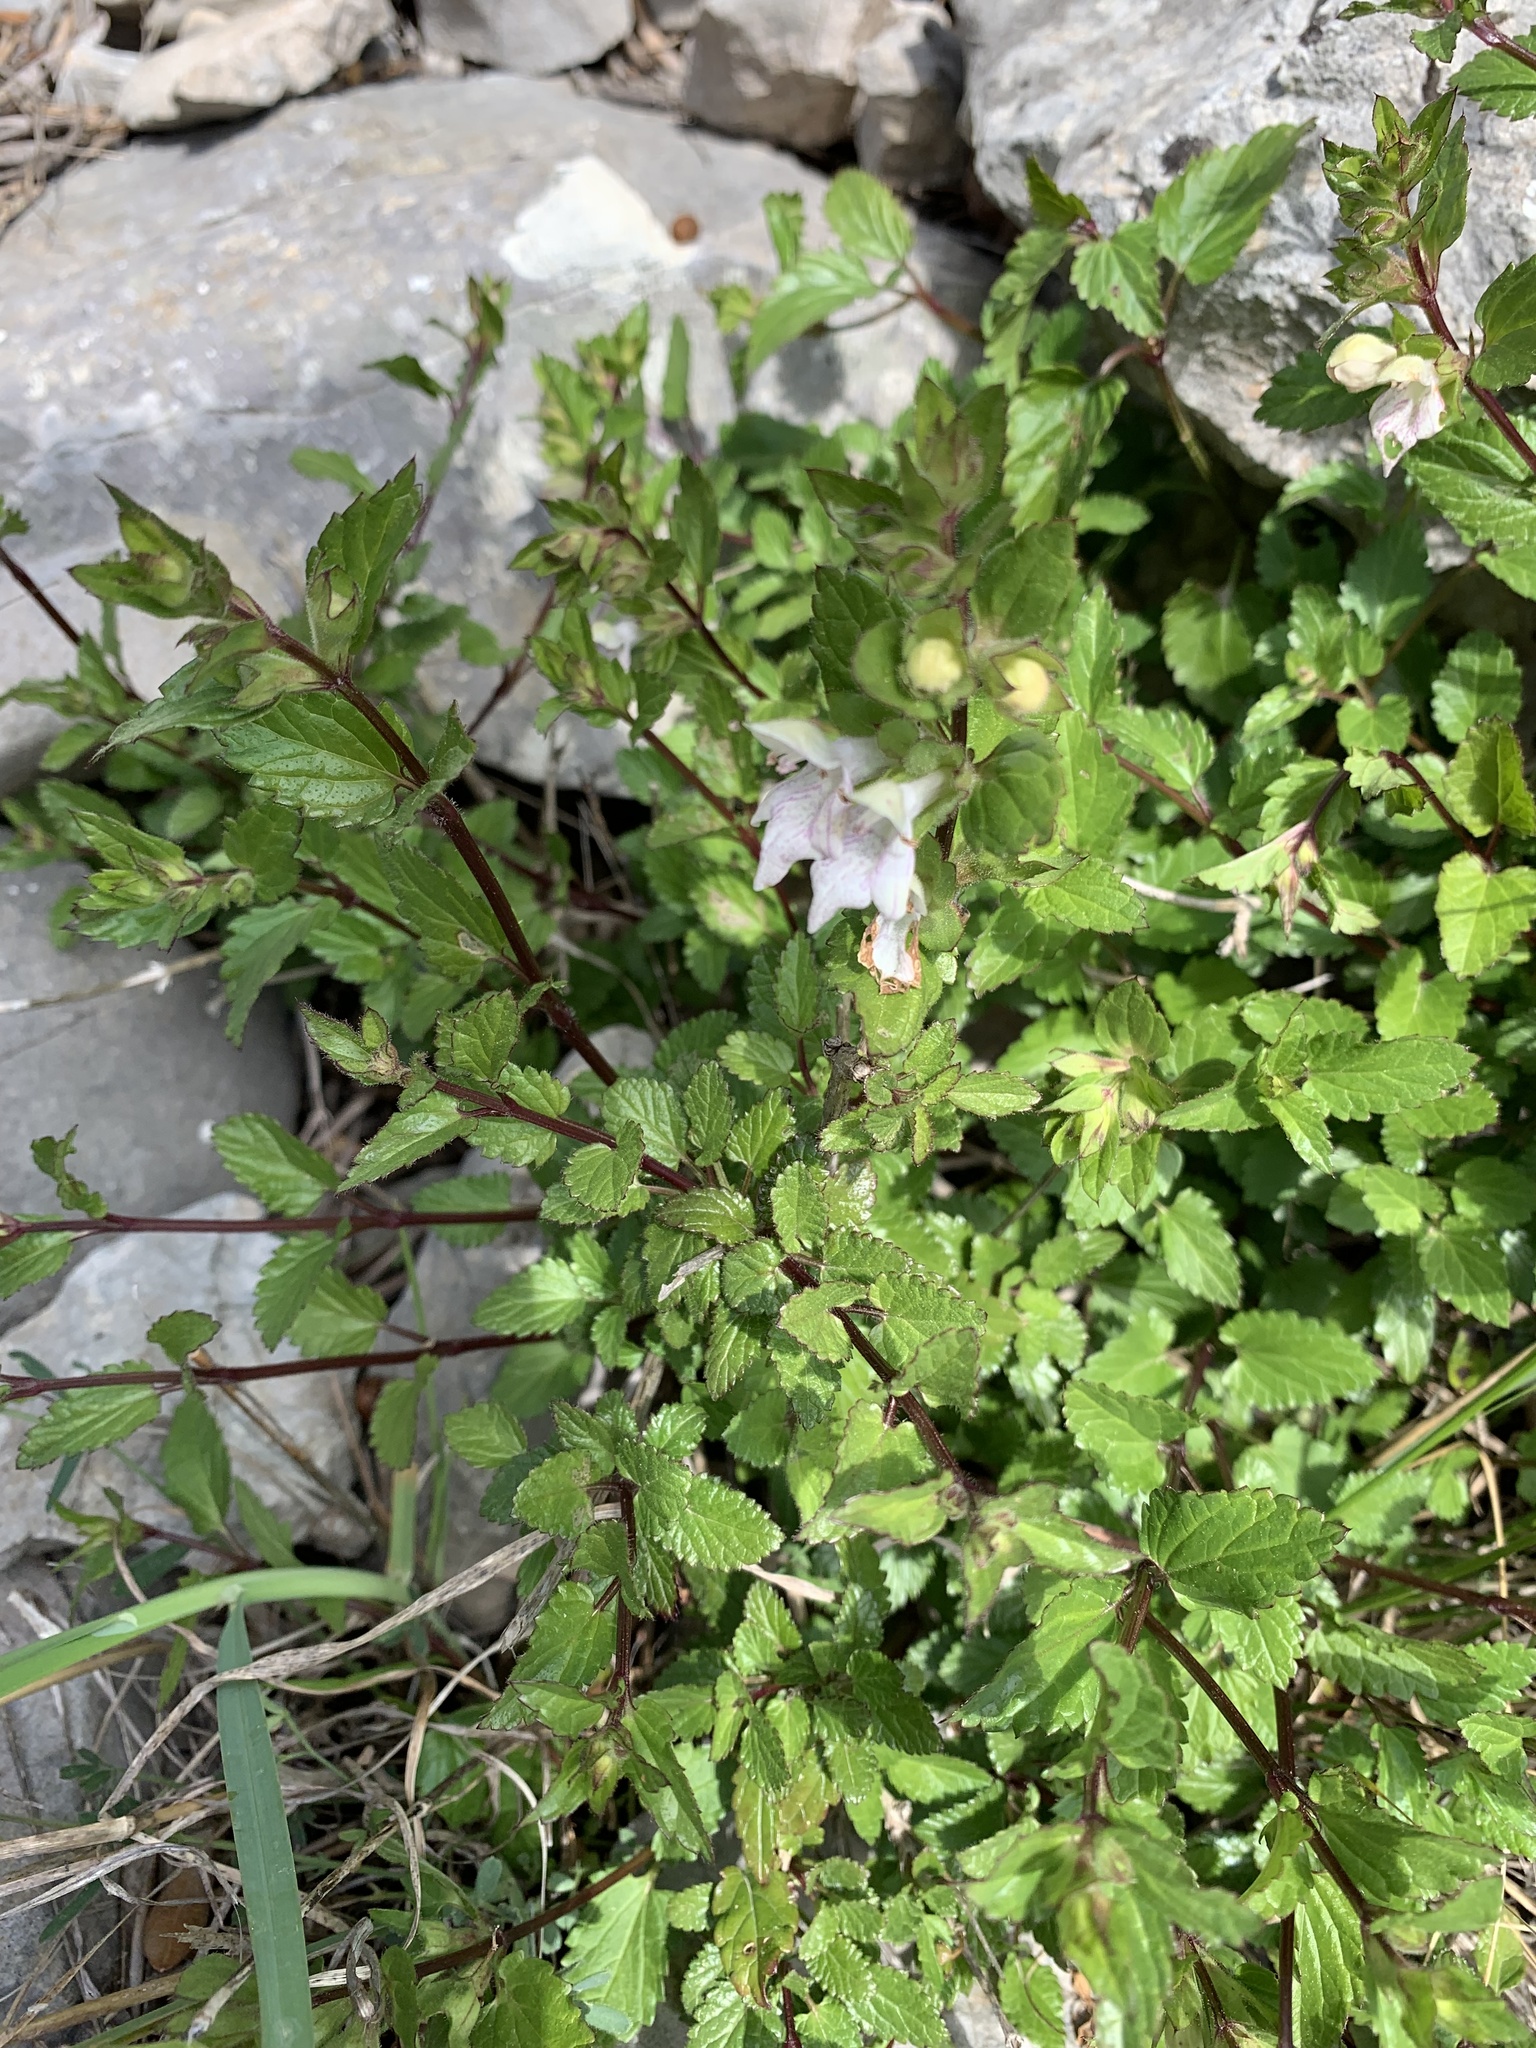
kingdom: Plantae
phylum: Tracheophyta
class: Magnoliopsida
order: Lamiales
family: Lamiaceae
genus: Prasium
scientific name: Prasium majus
